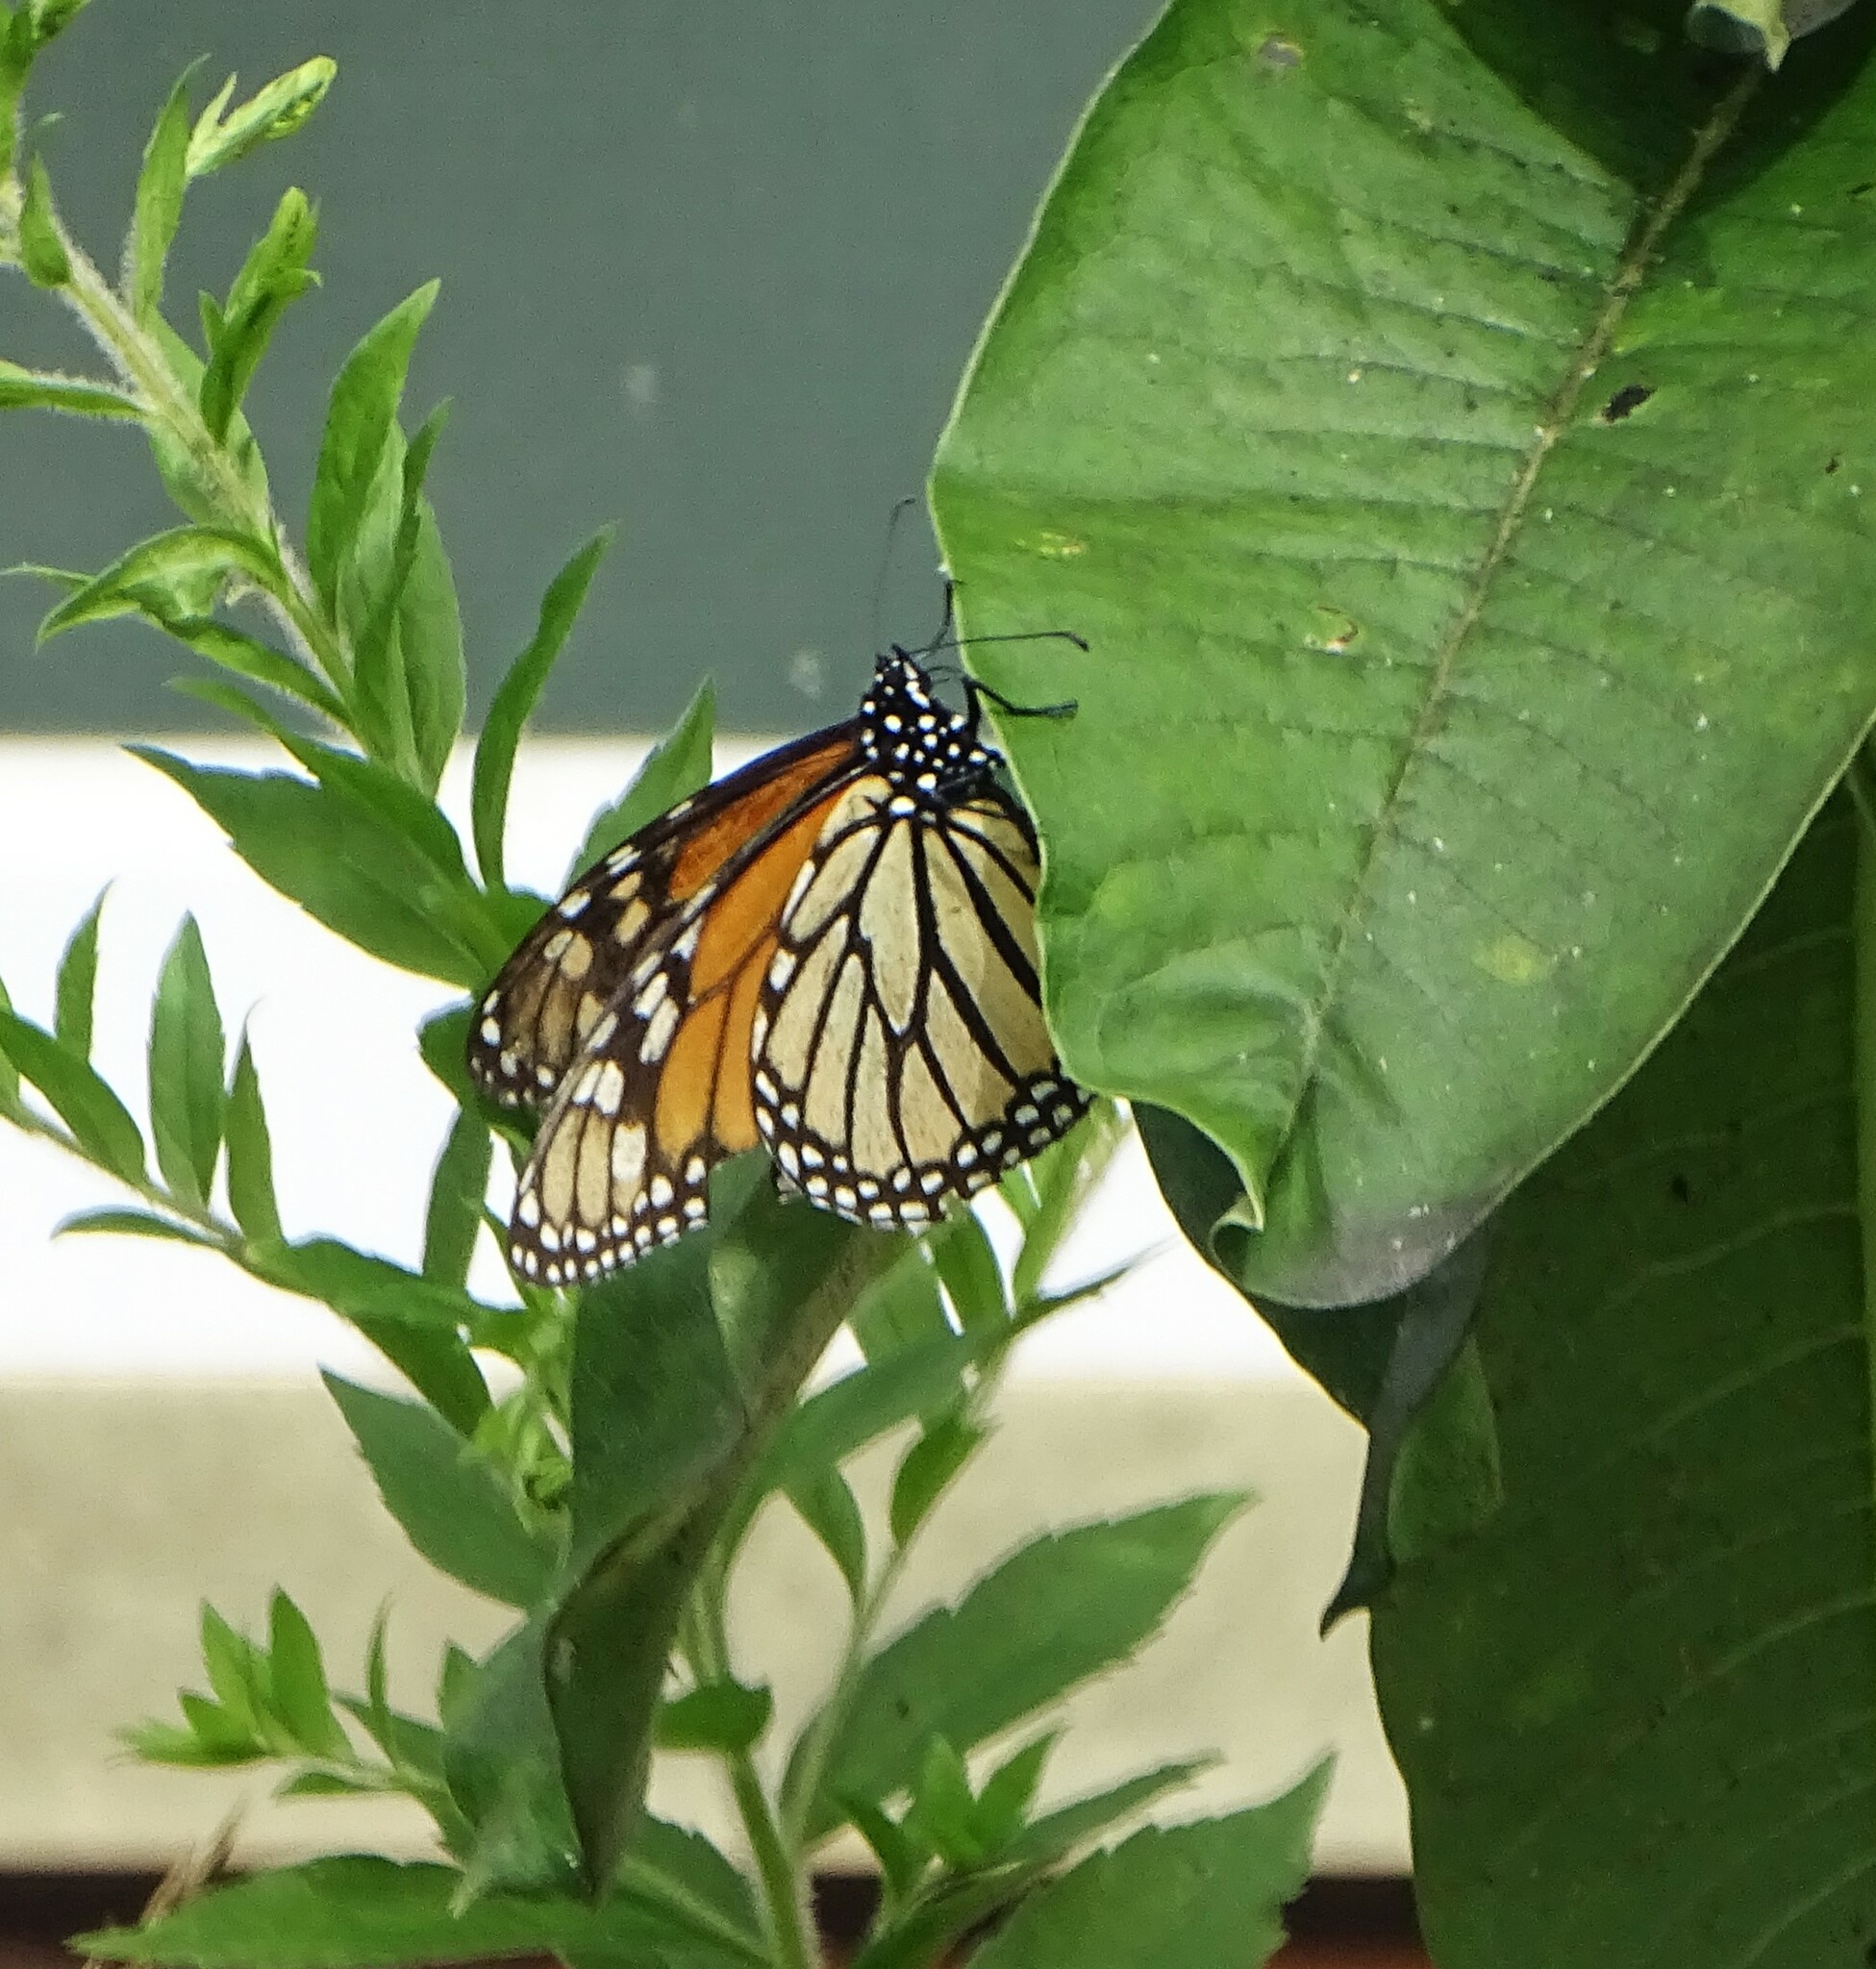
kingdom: Animalia
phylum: Arthropoda
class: Insecta
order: Lepidoptera
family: Nymphalidae
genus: Danaus
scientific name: Danaus plexippus
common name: Monarch
